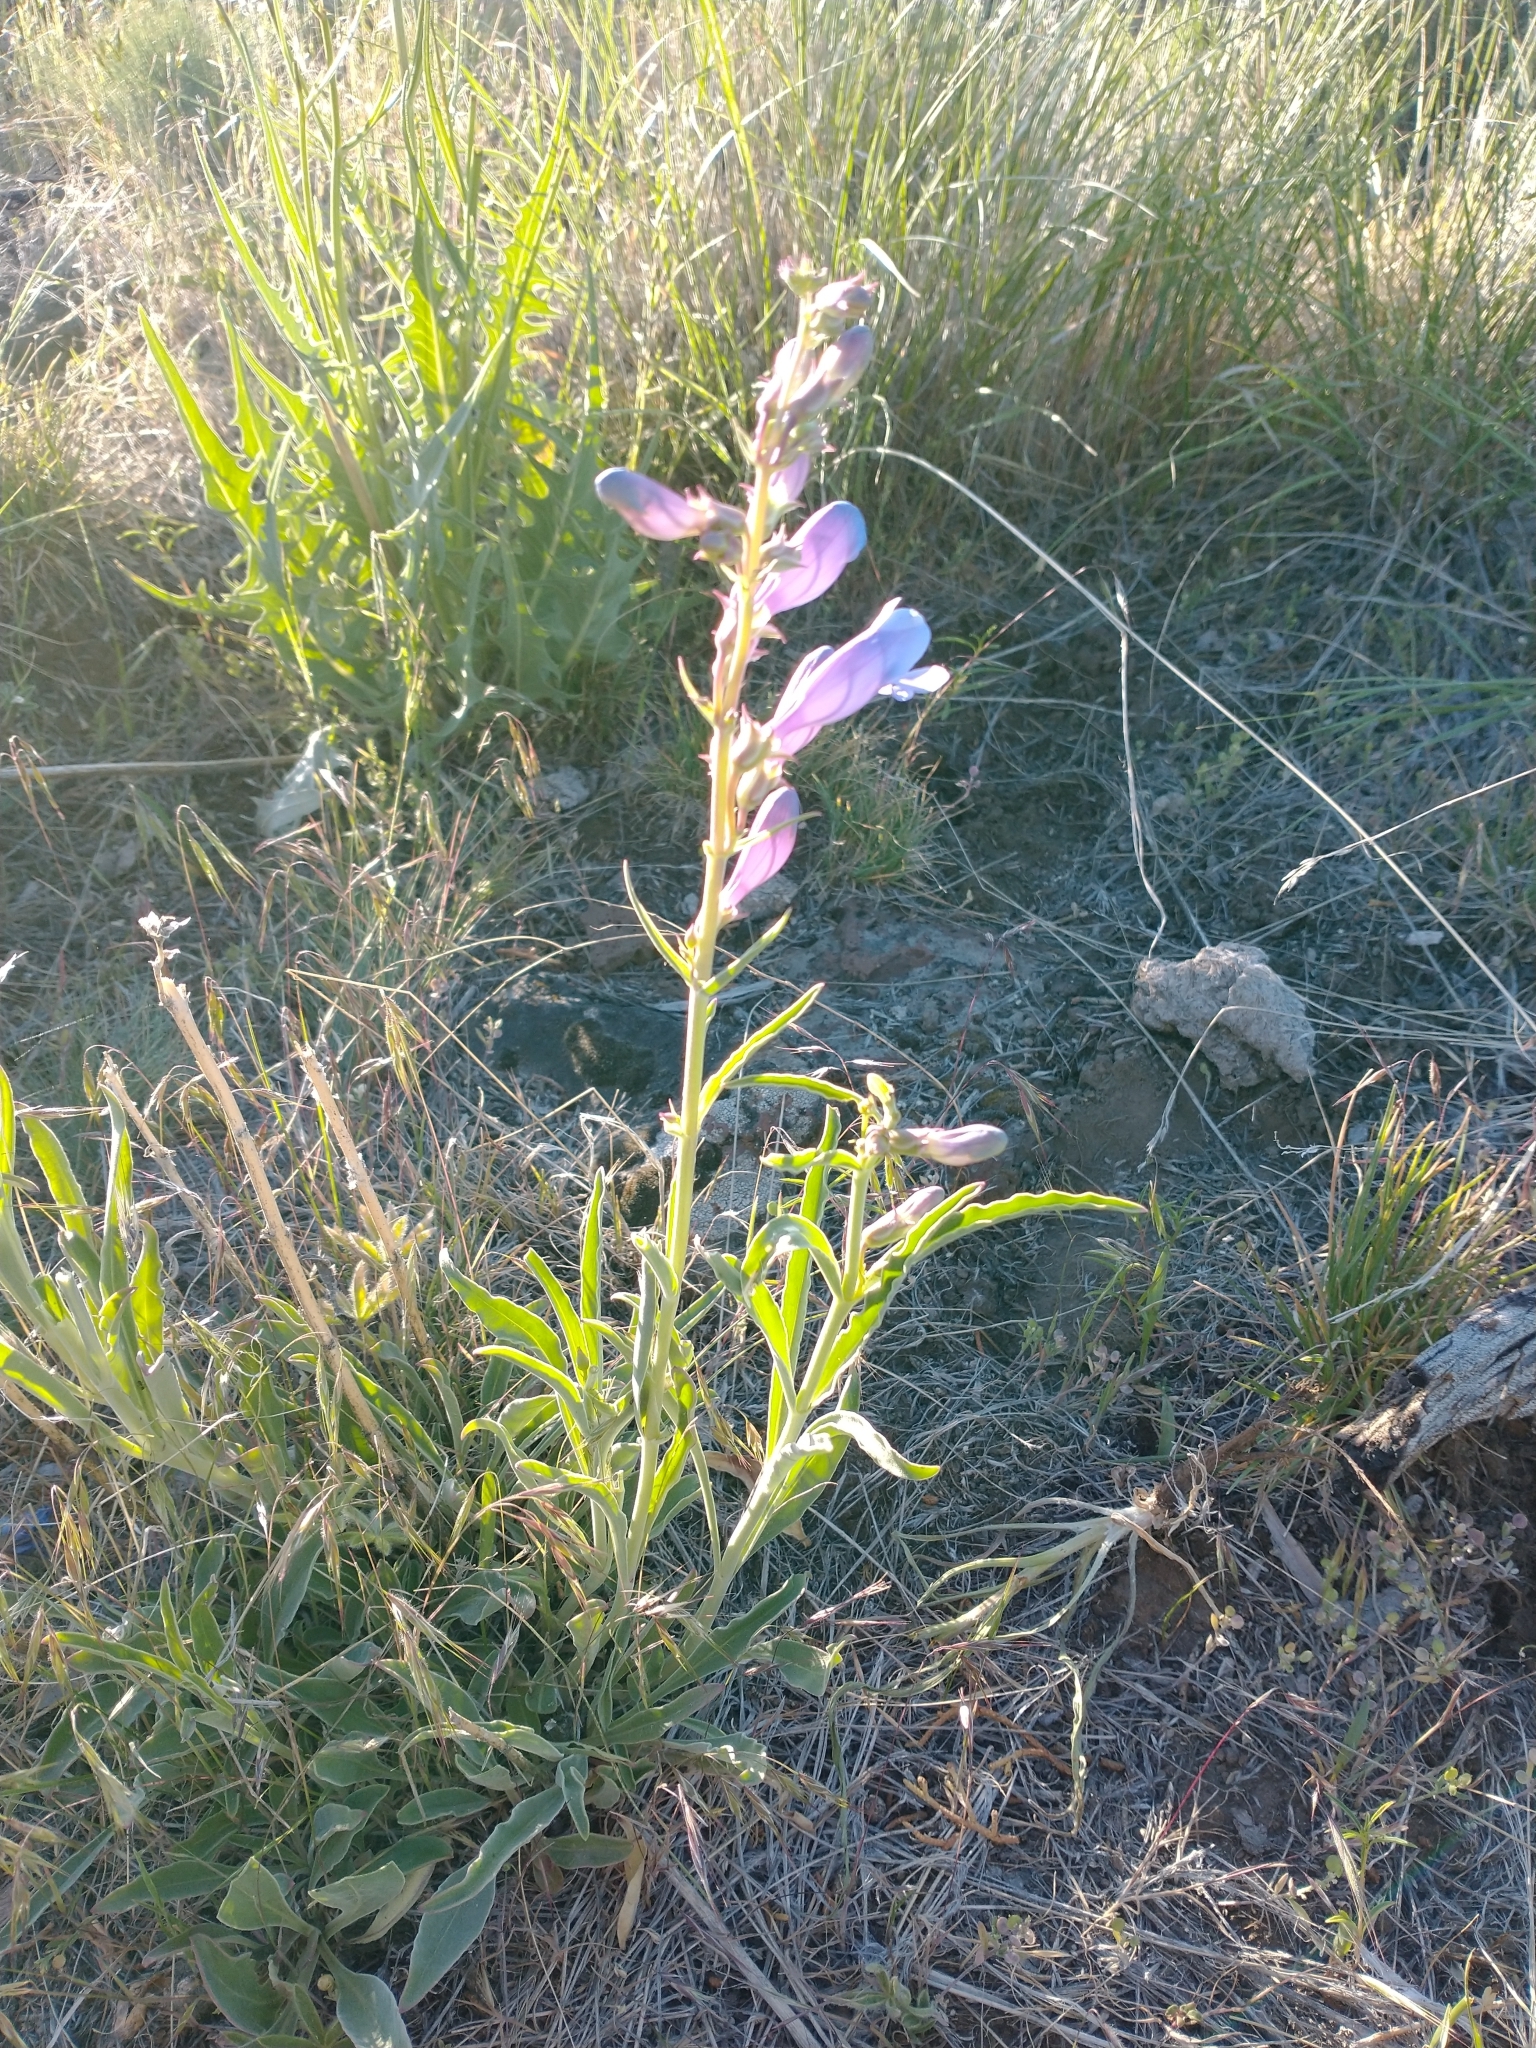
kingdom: Plantae
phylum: Tracheophyta
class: Magnoliopsida
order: Lamiales
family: Plantaginaceae
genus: Penstemon
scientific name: Penstemon speciosus
